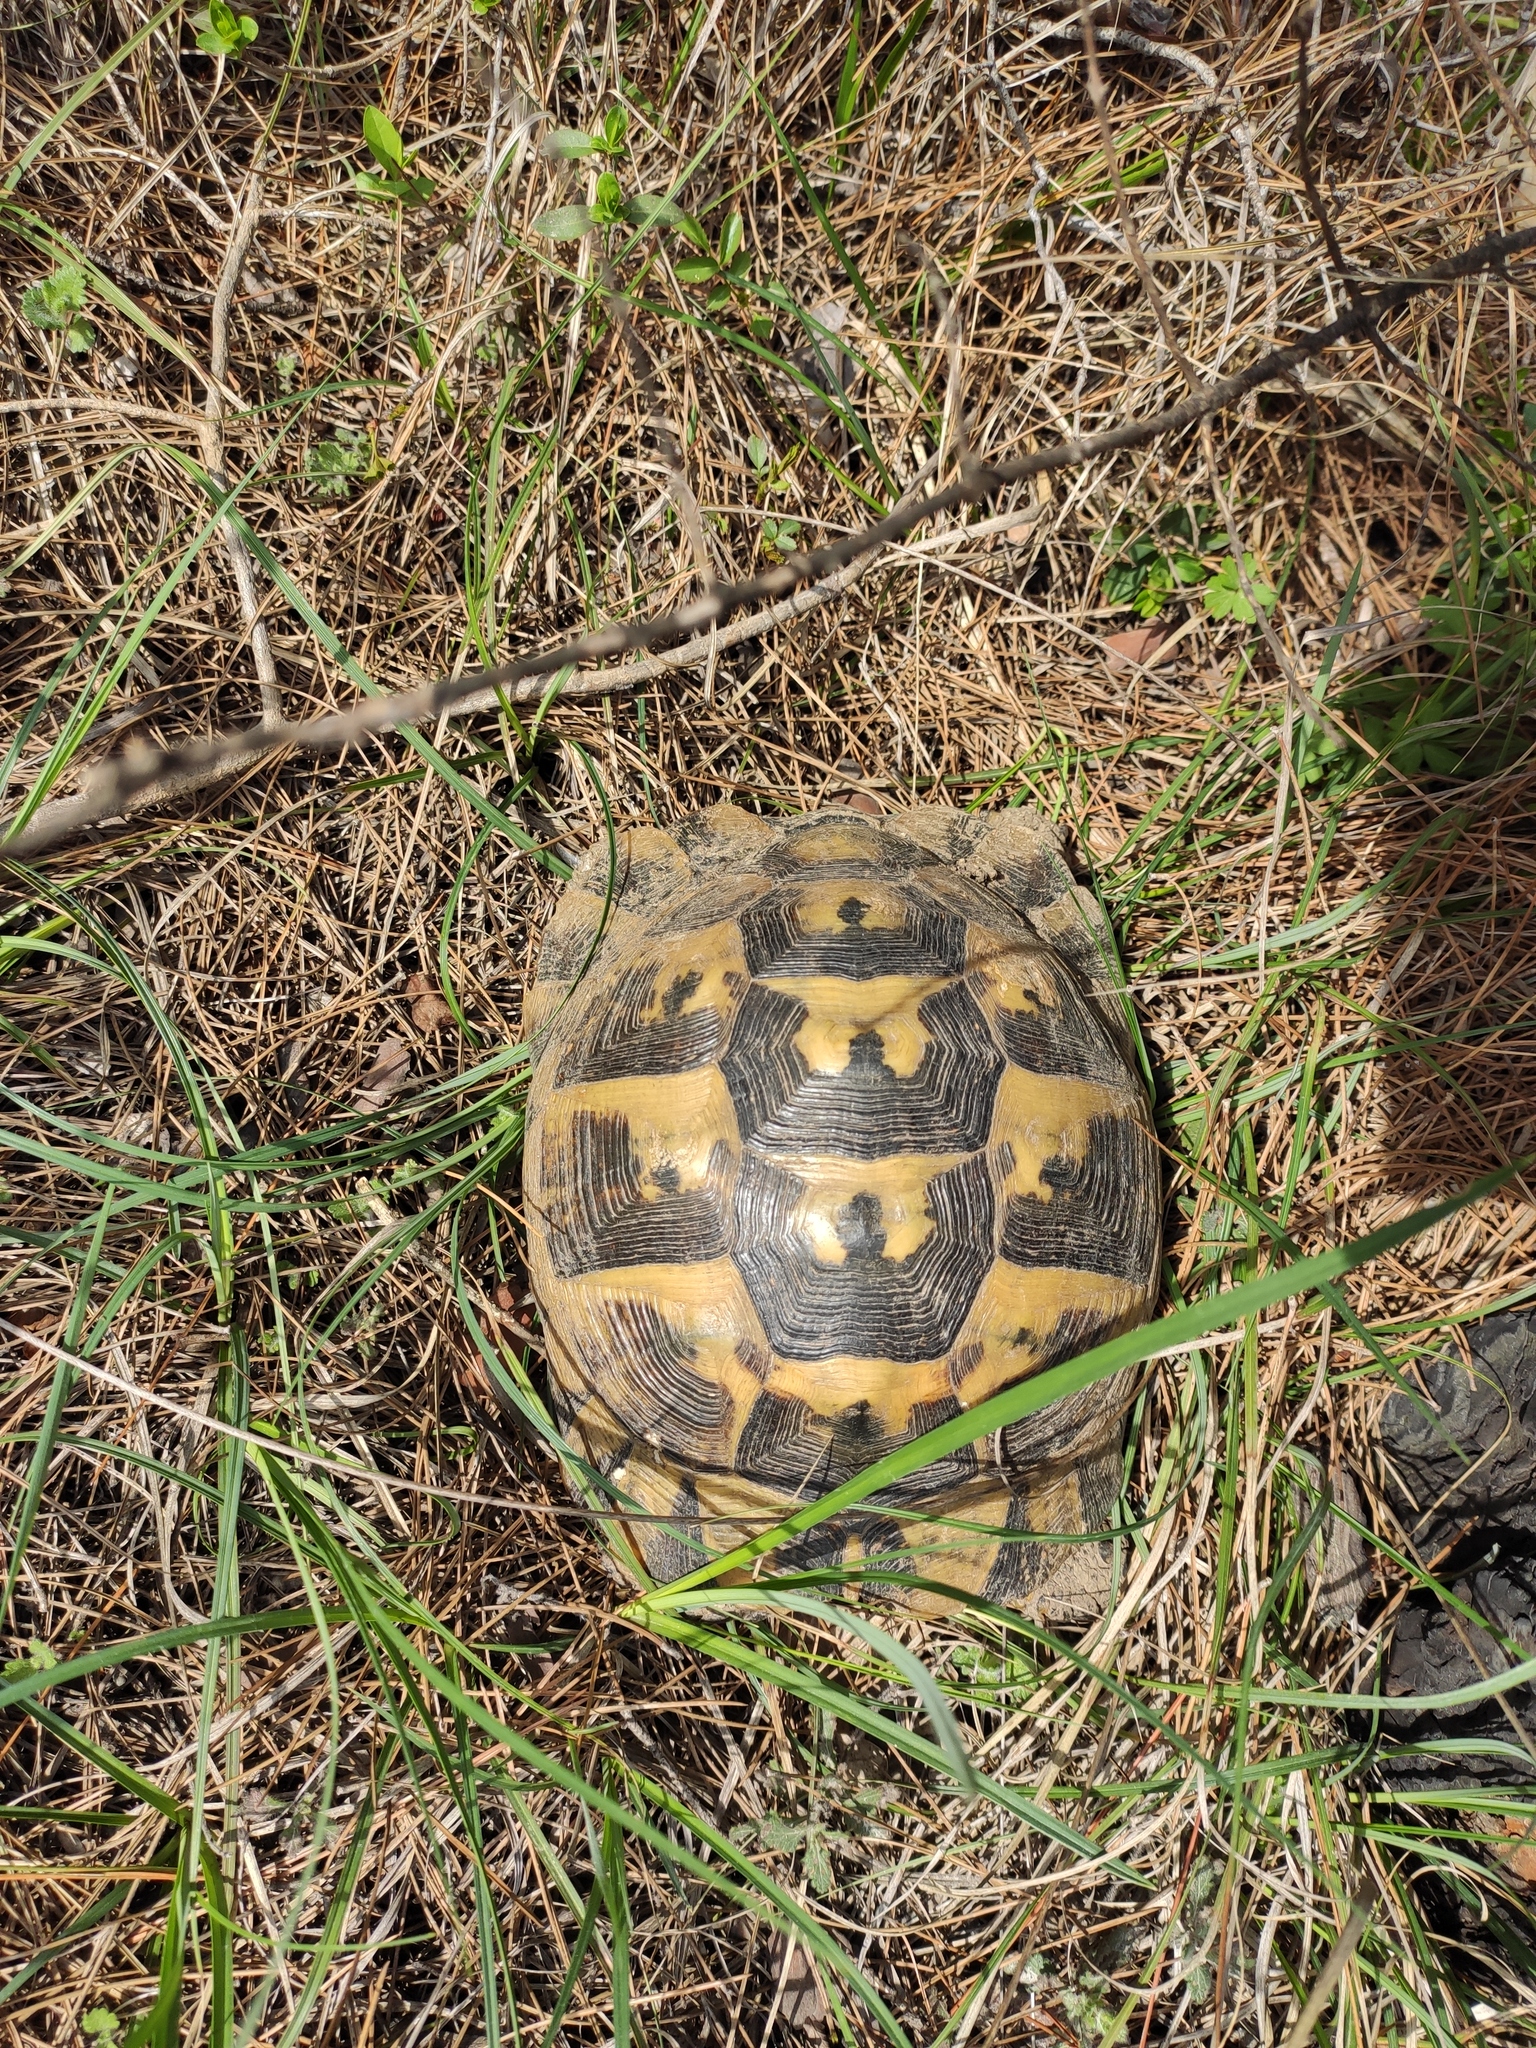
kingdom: Animalia
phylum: Chordata
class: Testudines
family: Testudinidae
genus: Testudo
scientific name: Testudo graeca
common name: Common tortoise
